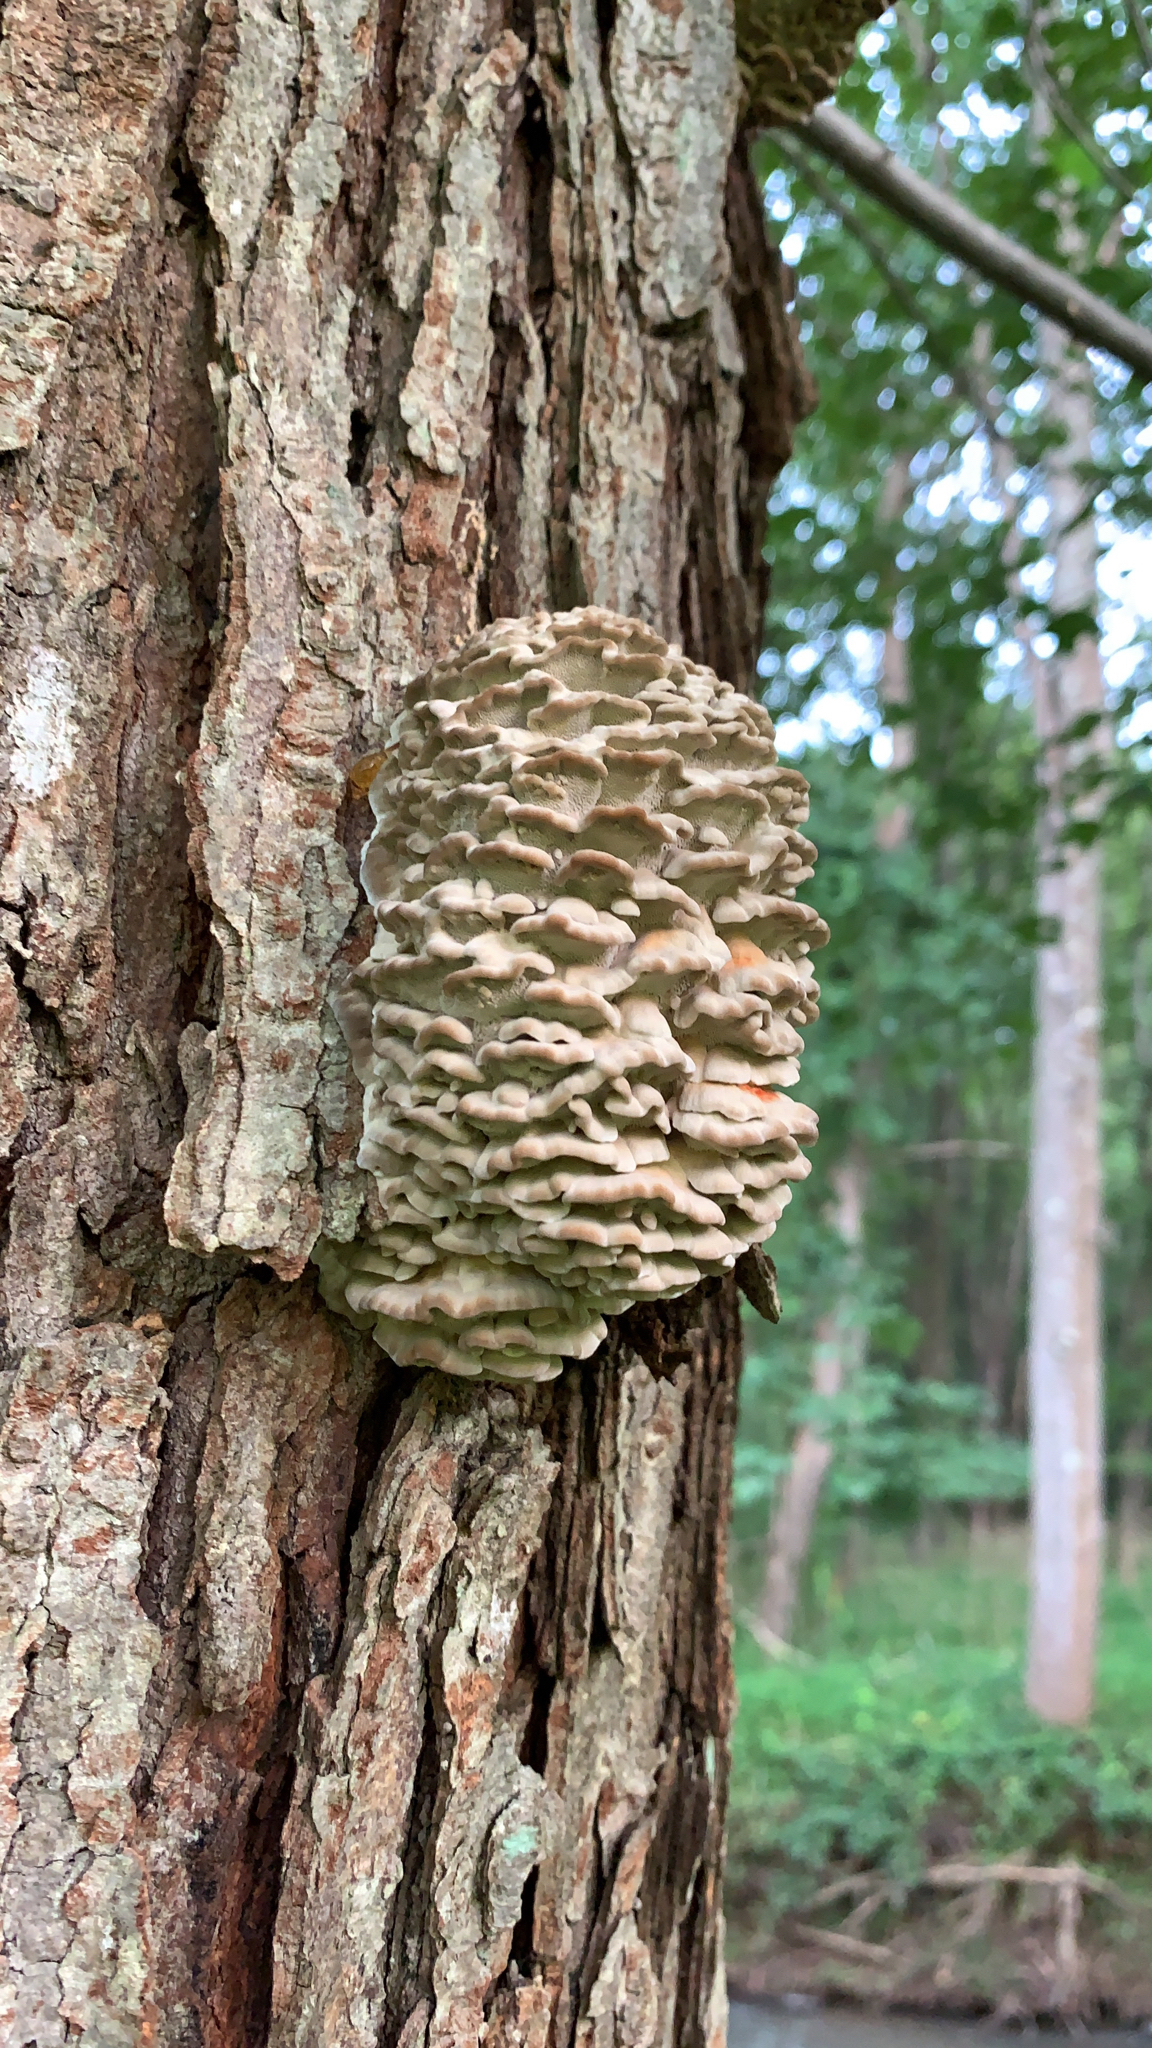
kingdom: Fungi
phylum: Basidiomycota
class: Agaricomycetes
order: Polyporales
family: Meruliaceae
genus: Climacodon
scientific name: Climacodon septentrionalis
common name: Northern tooth
